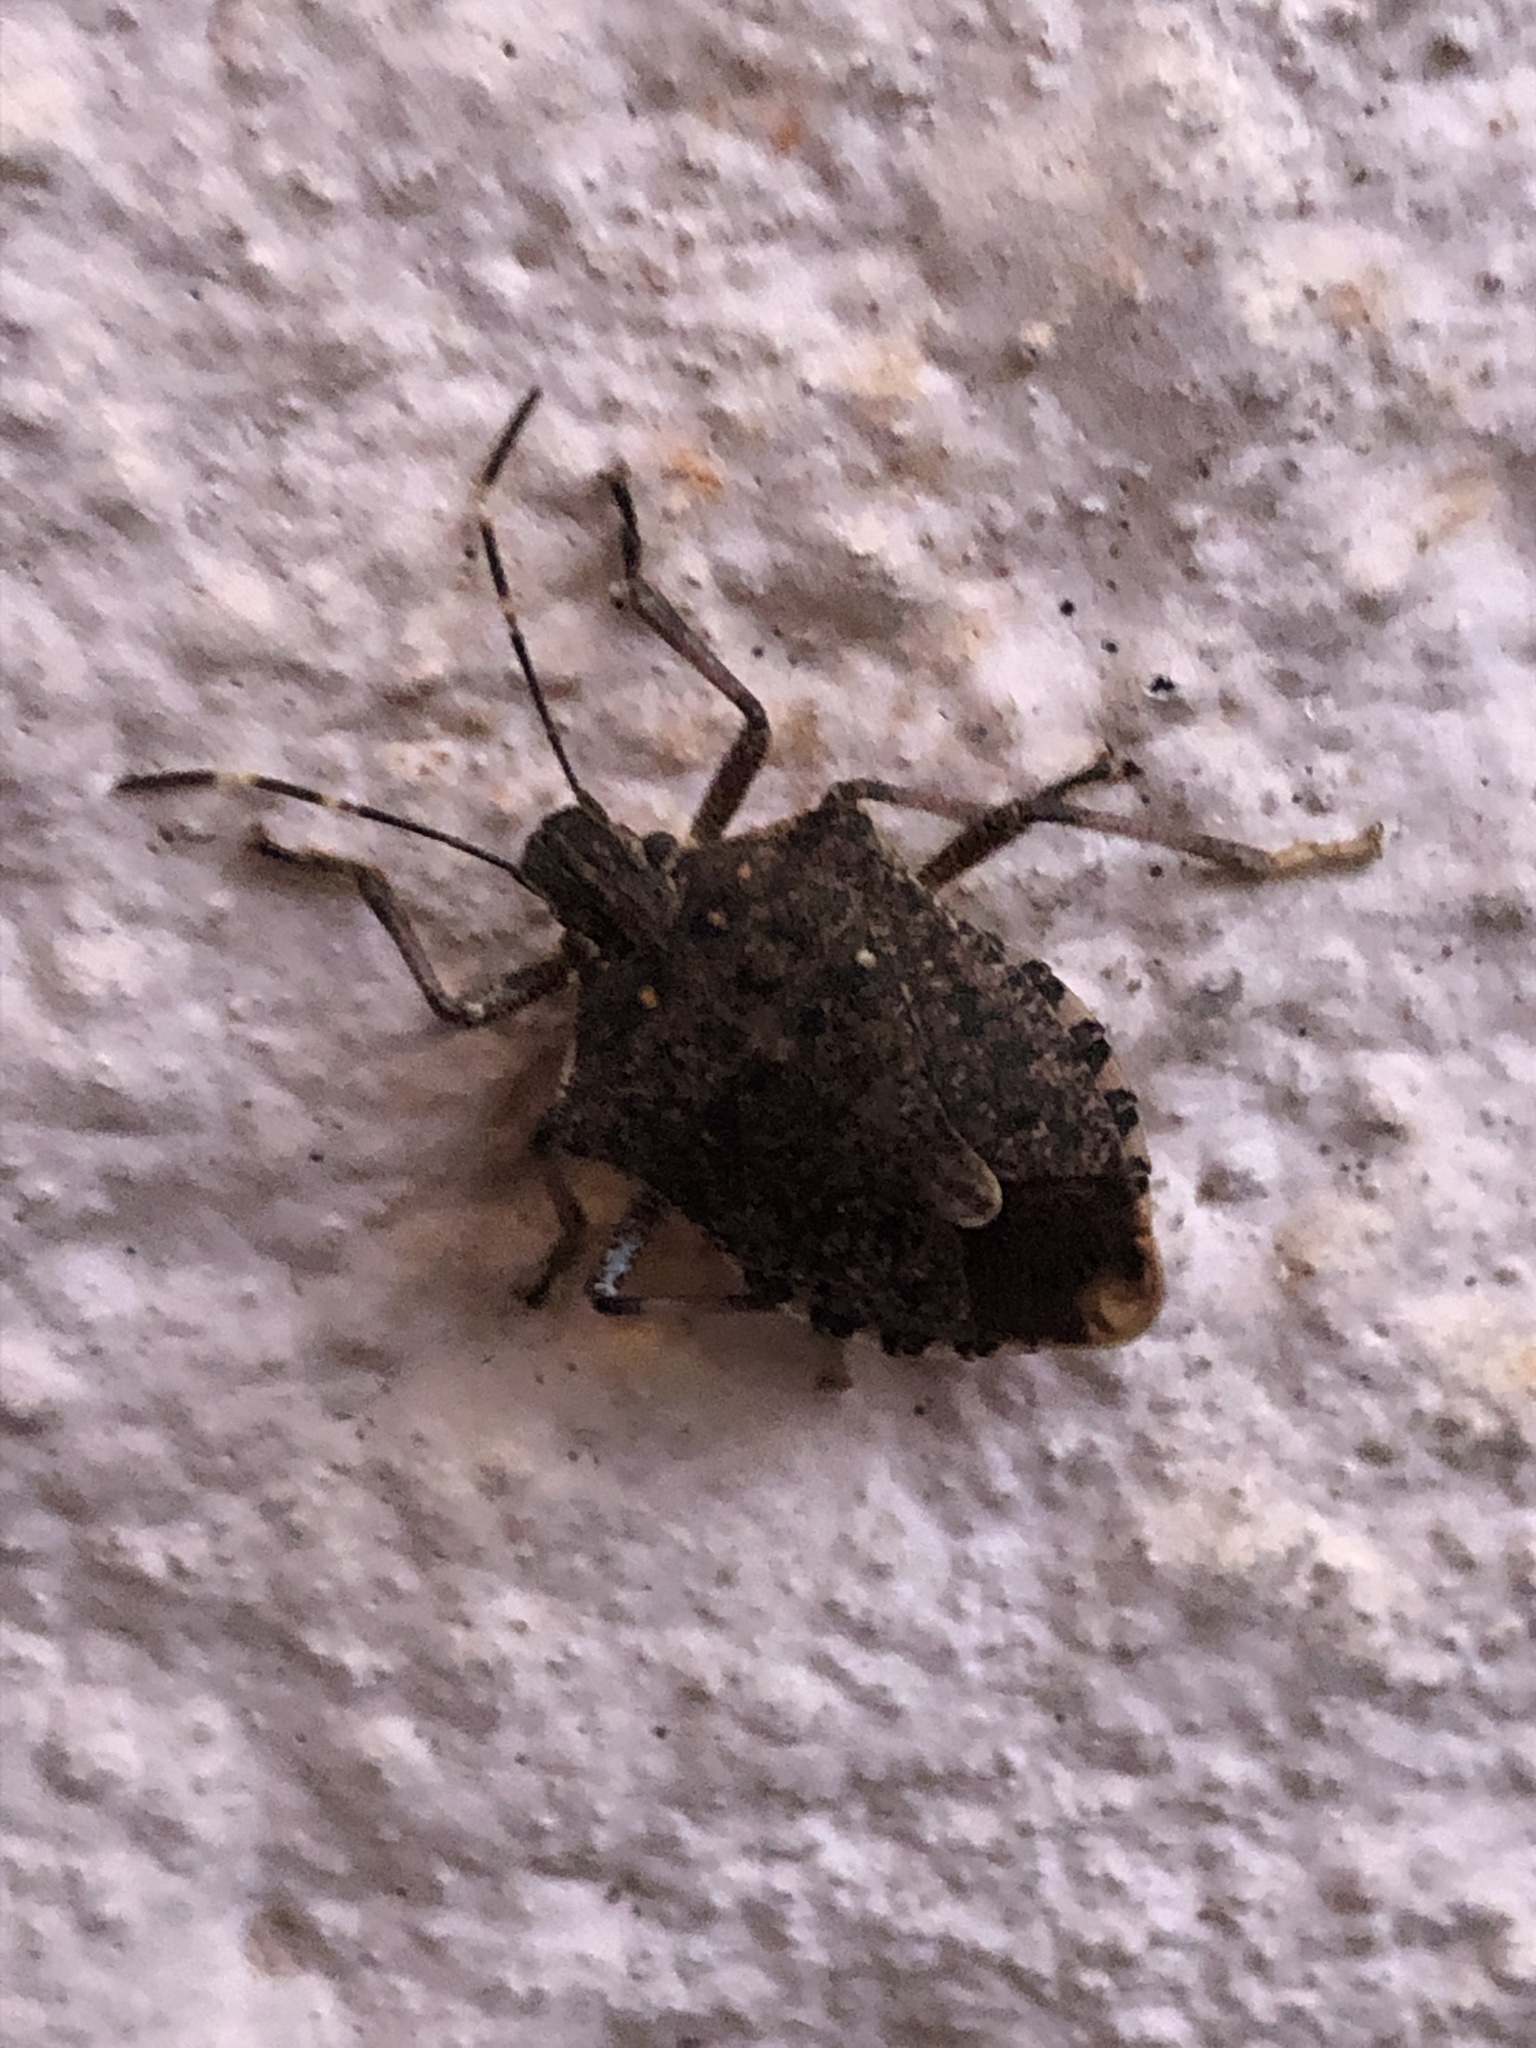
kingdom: Animalia
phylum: Arthropoda
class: Insecta
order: Hemiptera
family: Pentatomidae
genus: Halyomorpha
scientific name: Halyomorpha halys
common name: Brown marmorated stink bug
